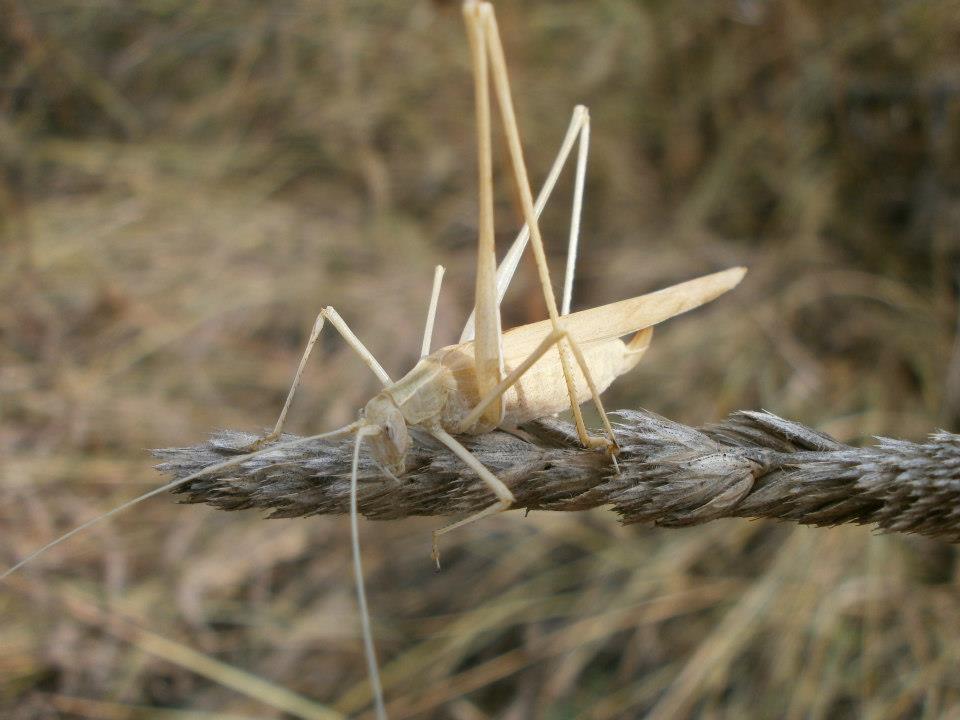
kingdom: Animalia
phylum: Arthropoda
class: Insecta
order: Orthoptera
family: Tettigoniidae
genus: Tylopsis
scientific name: Tylopsis lilifolia
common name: Lily bush-cricket
